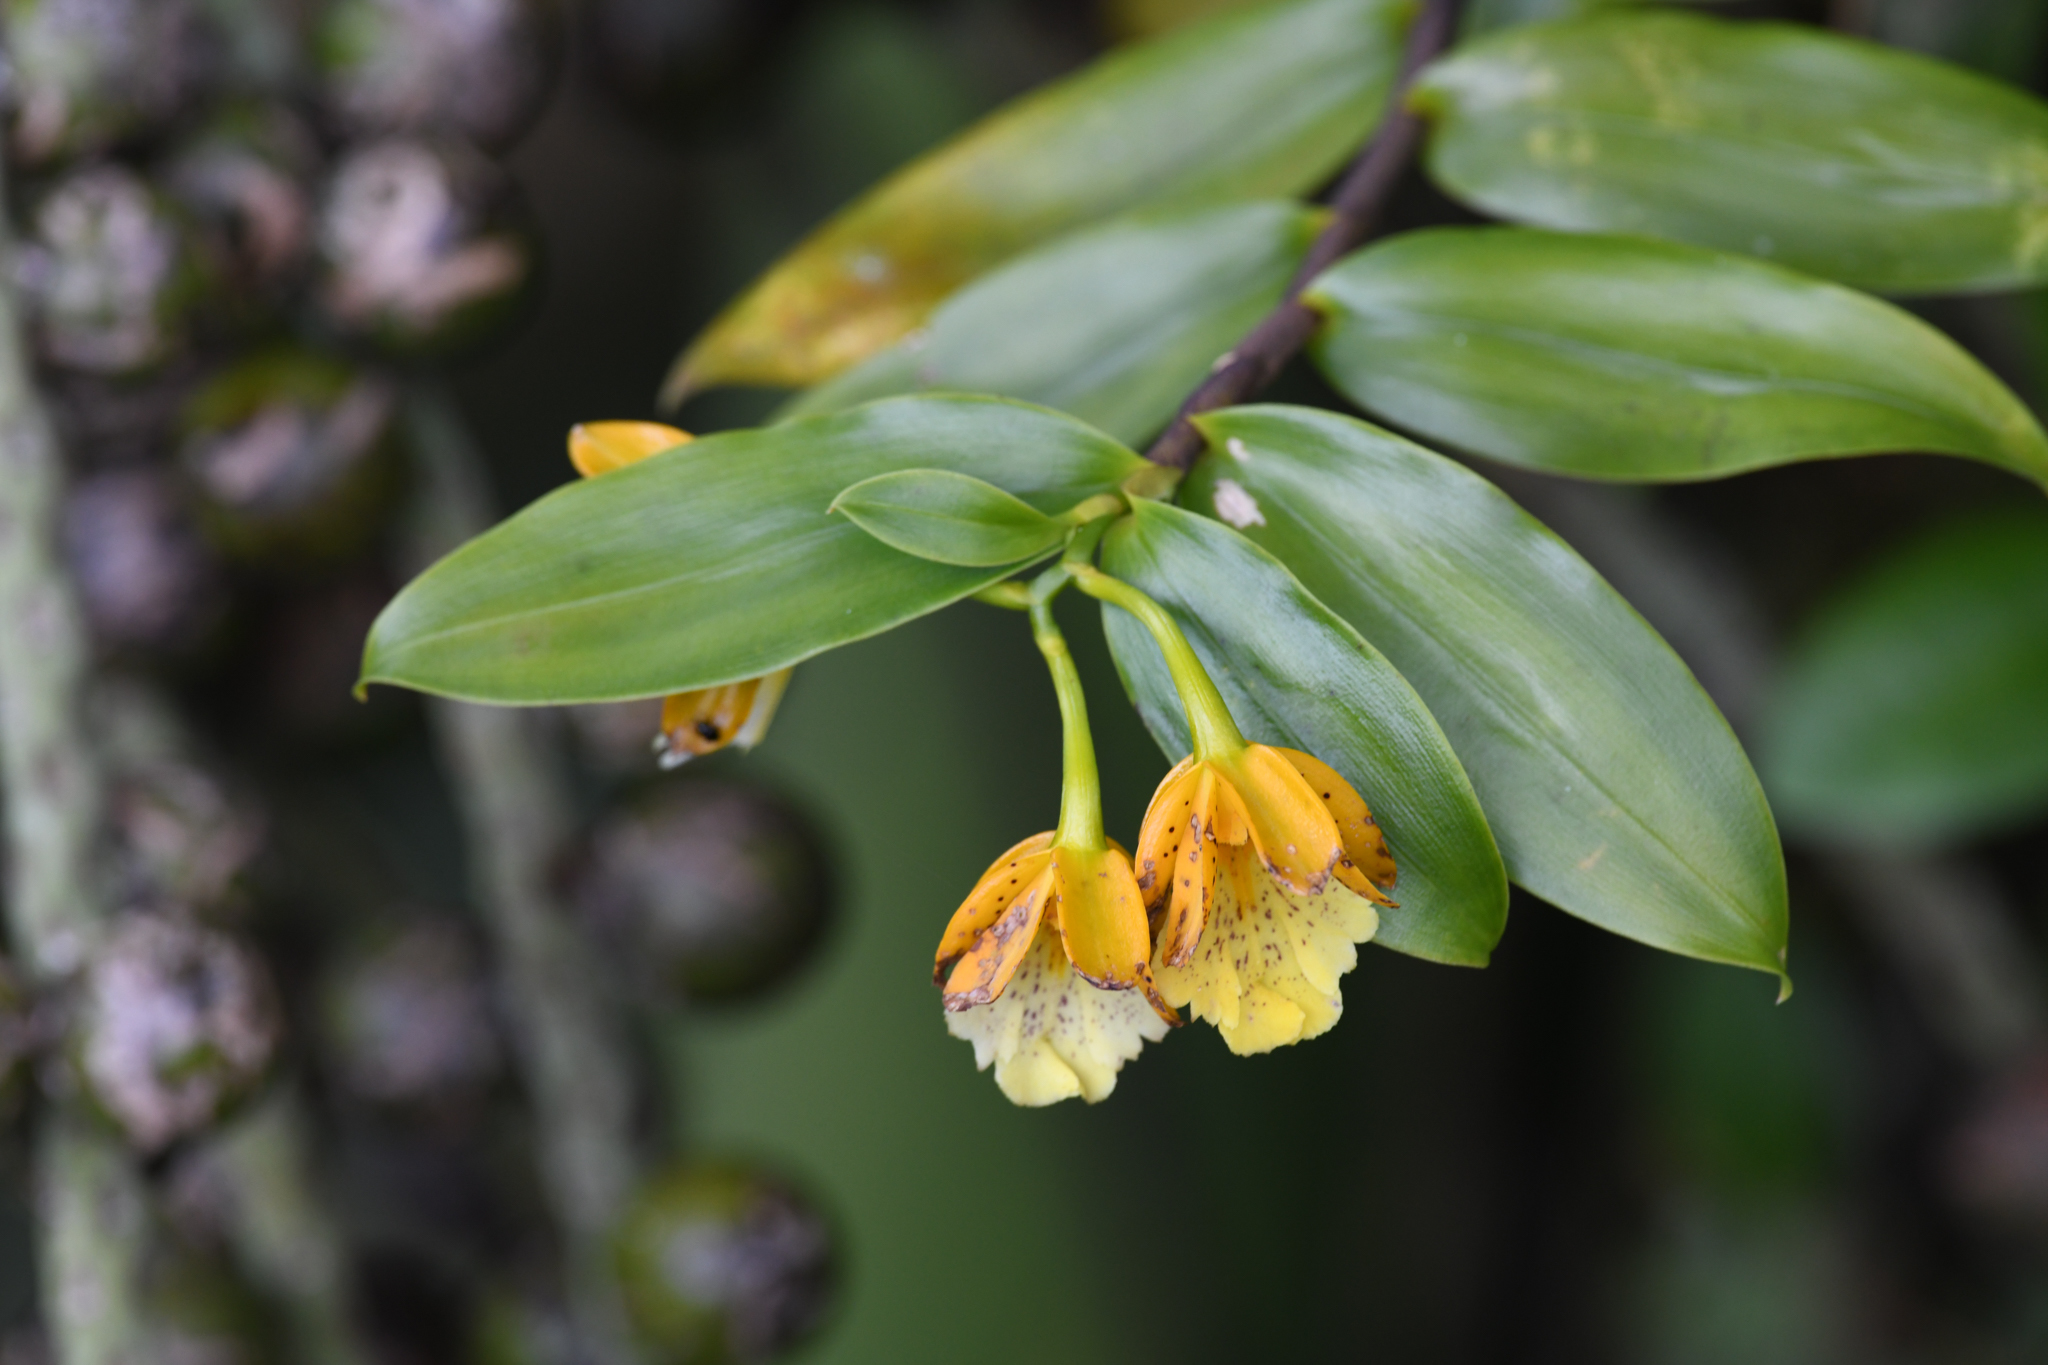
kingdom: Plantae
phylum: Tracheophyta
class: Liliopsida
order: Asparagales
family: Orchidaceae
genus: Epidendrum
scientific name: Epidendrum wallisii
